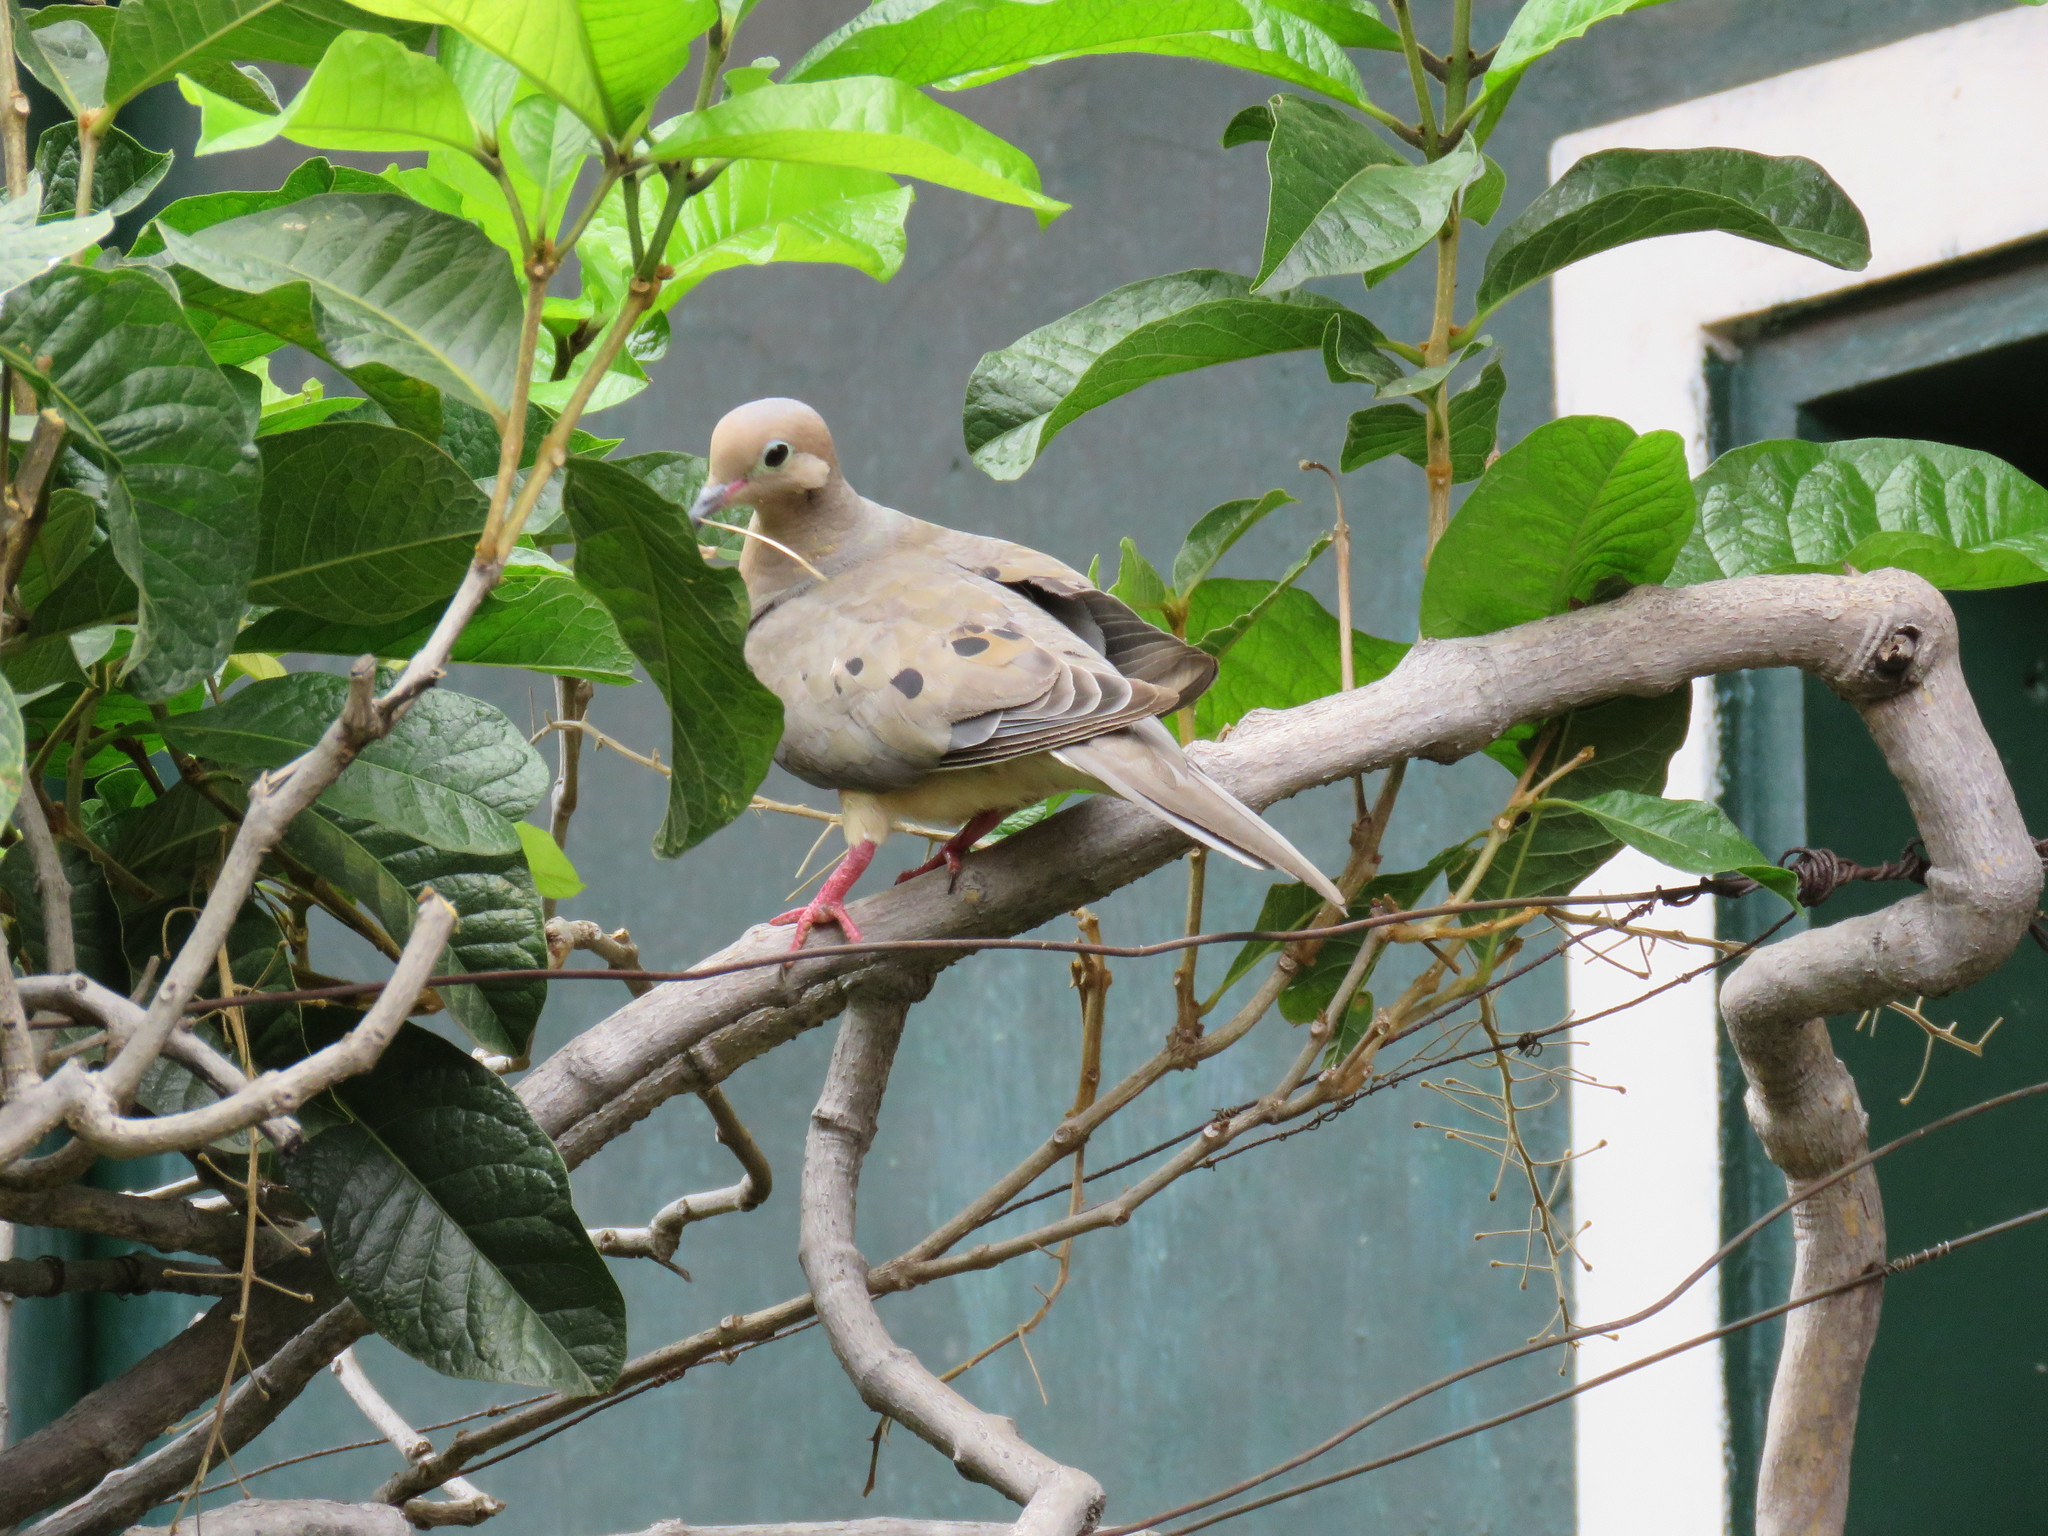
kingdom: Animalia
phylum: Chordata
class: Aves
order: Columbiformes
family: Columbidae
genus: Zenaida
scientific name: Zenaida macroura
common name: Mourning dove
